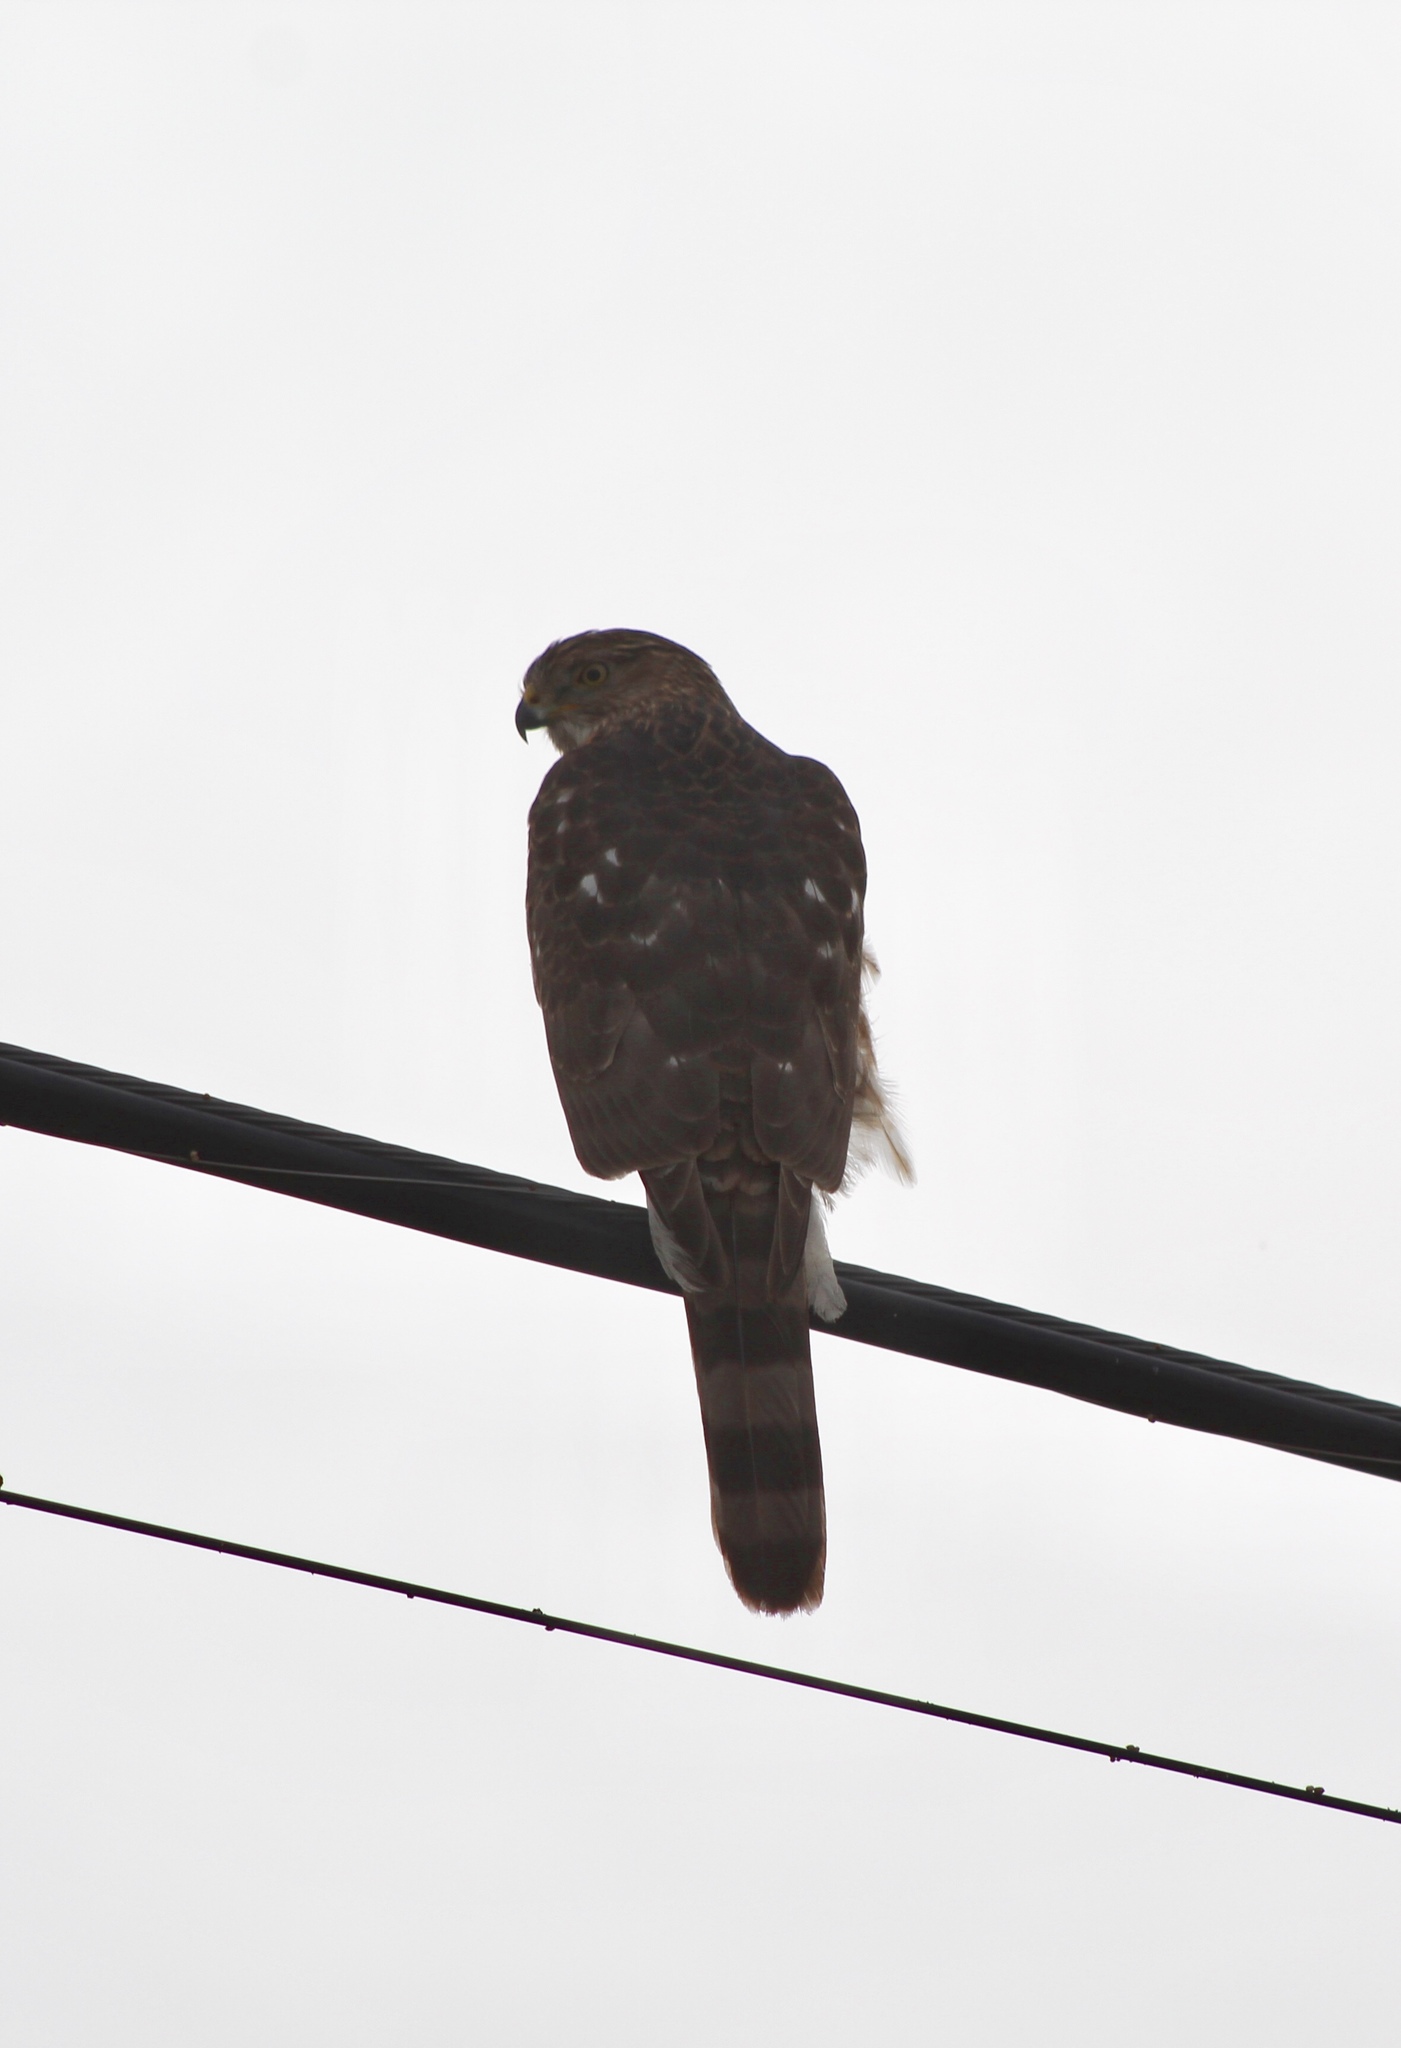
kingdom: Animalia
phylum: Chordata
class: Aves
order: Accipitriformes
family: Accipitridae
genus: Accipiter
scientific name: Accipiter cooperii
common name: Cooper's hawk
